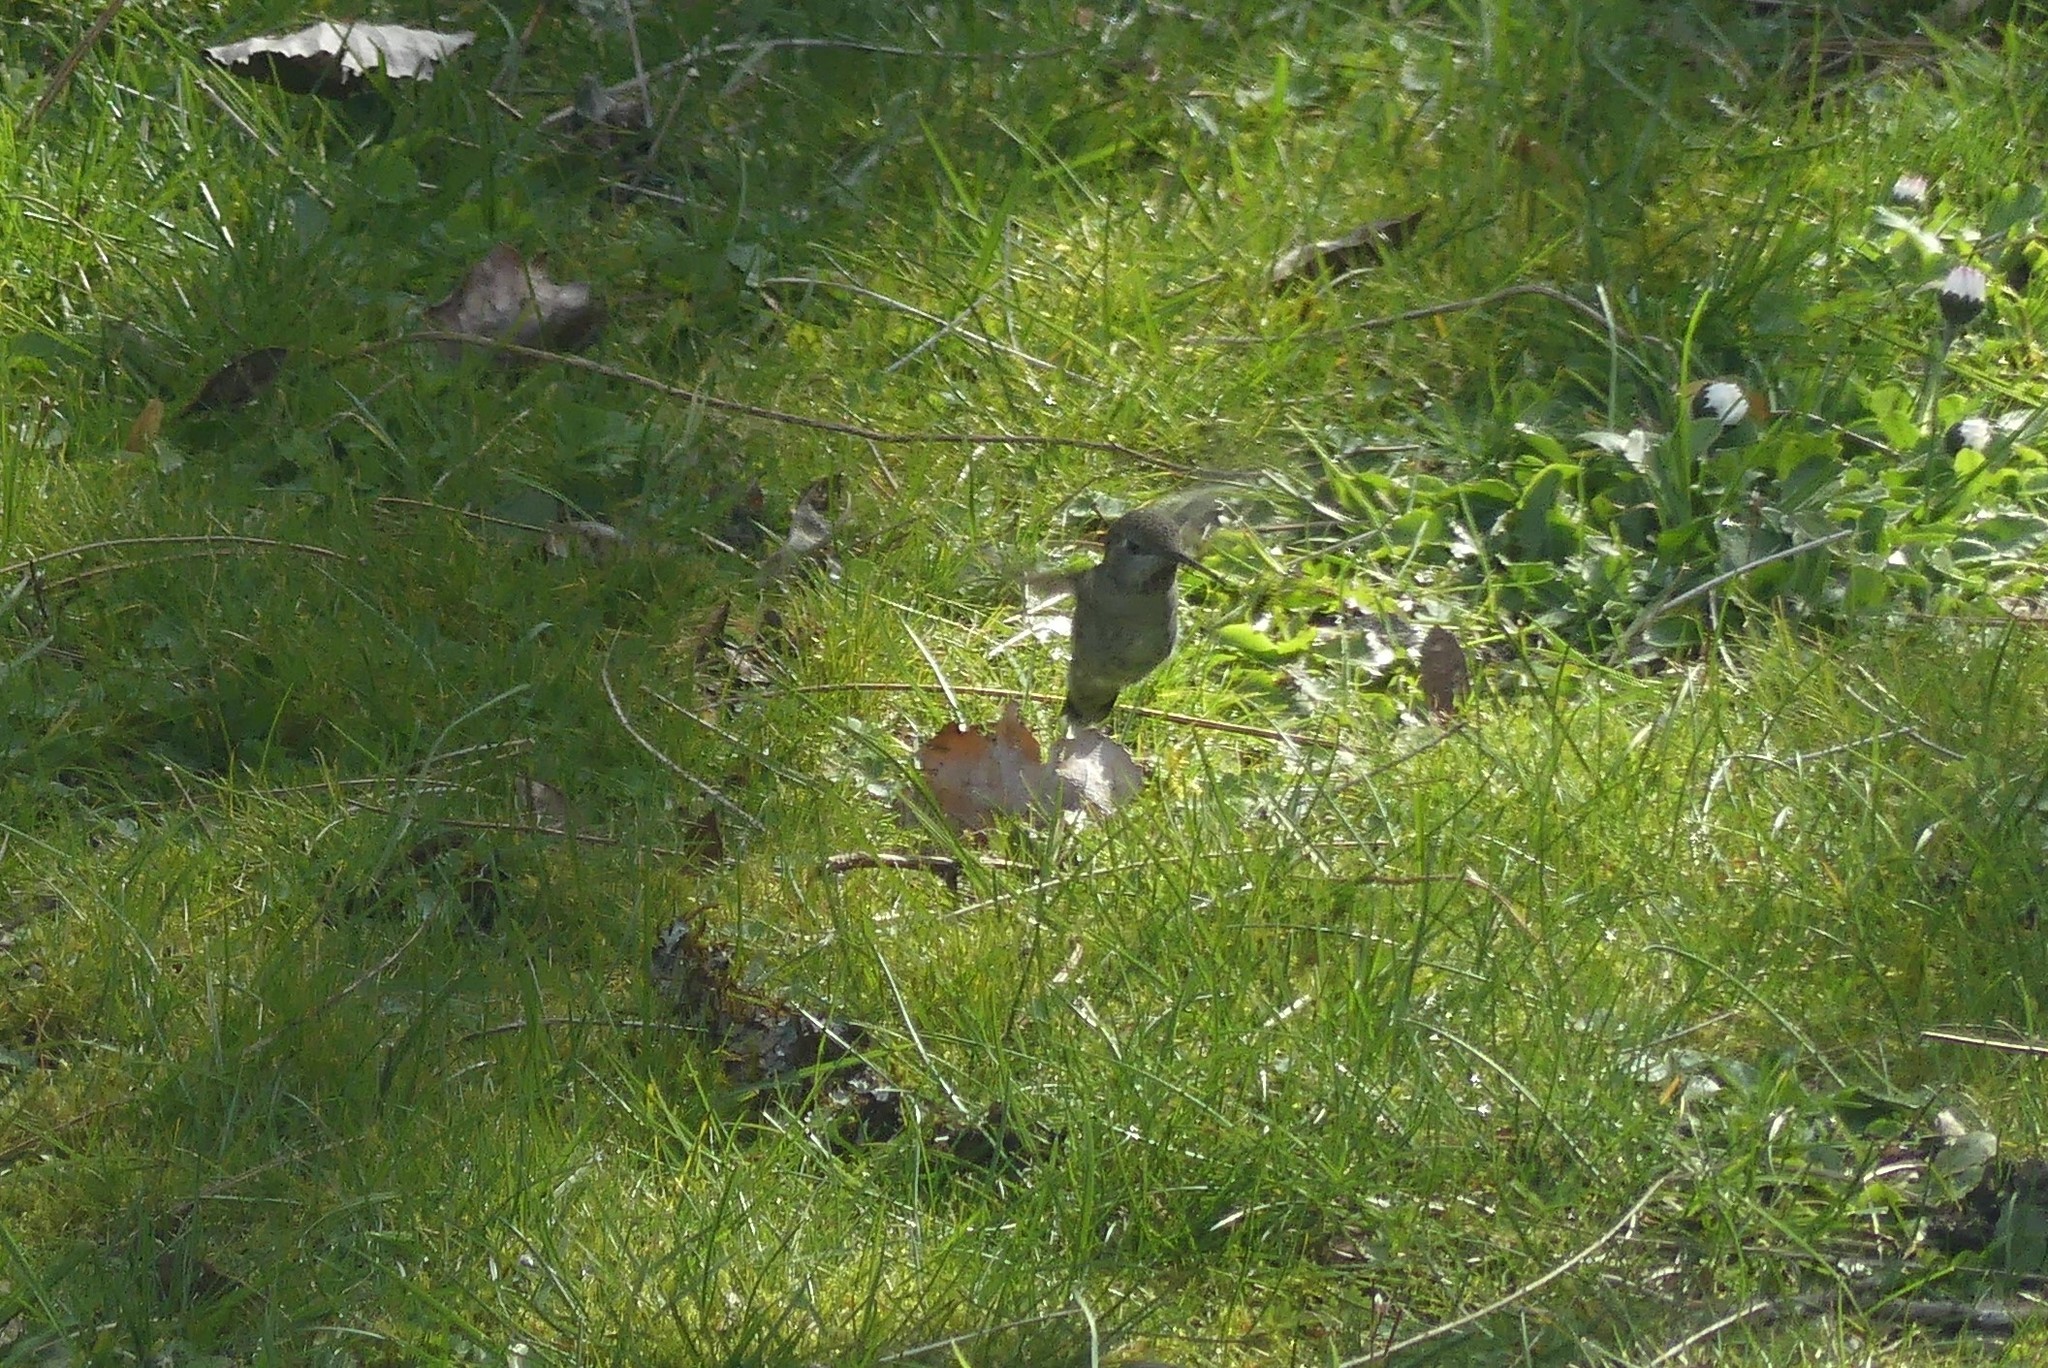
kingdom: Animalia
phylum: Chordata
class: Aves
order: Apodiformes
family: Trochilidae
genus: Calypte
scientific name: Calypte anna
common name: Anna's hummingbird
